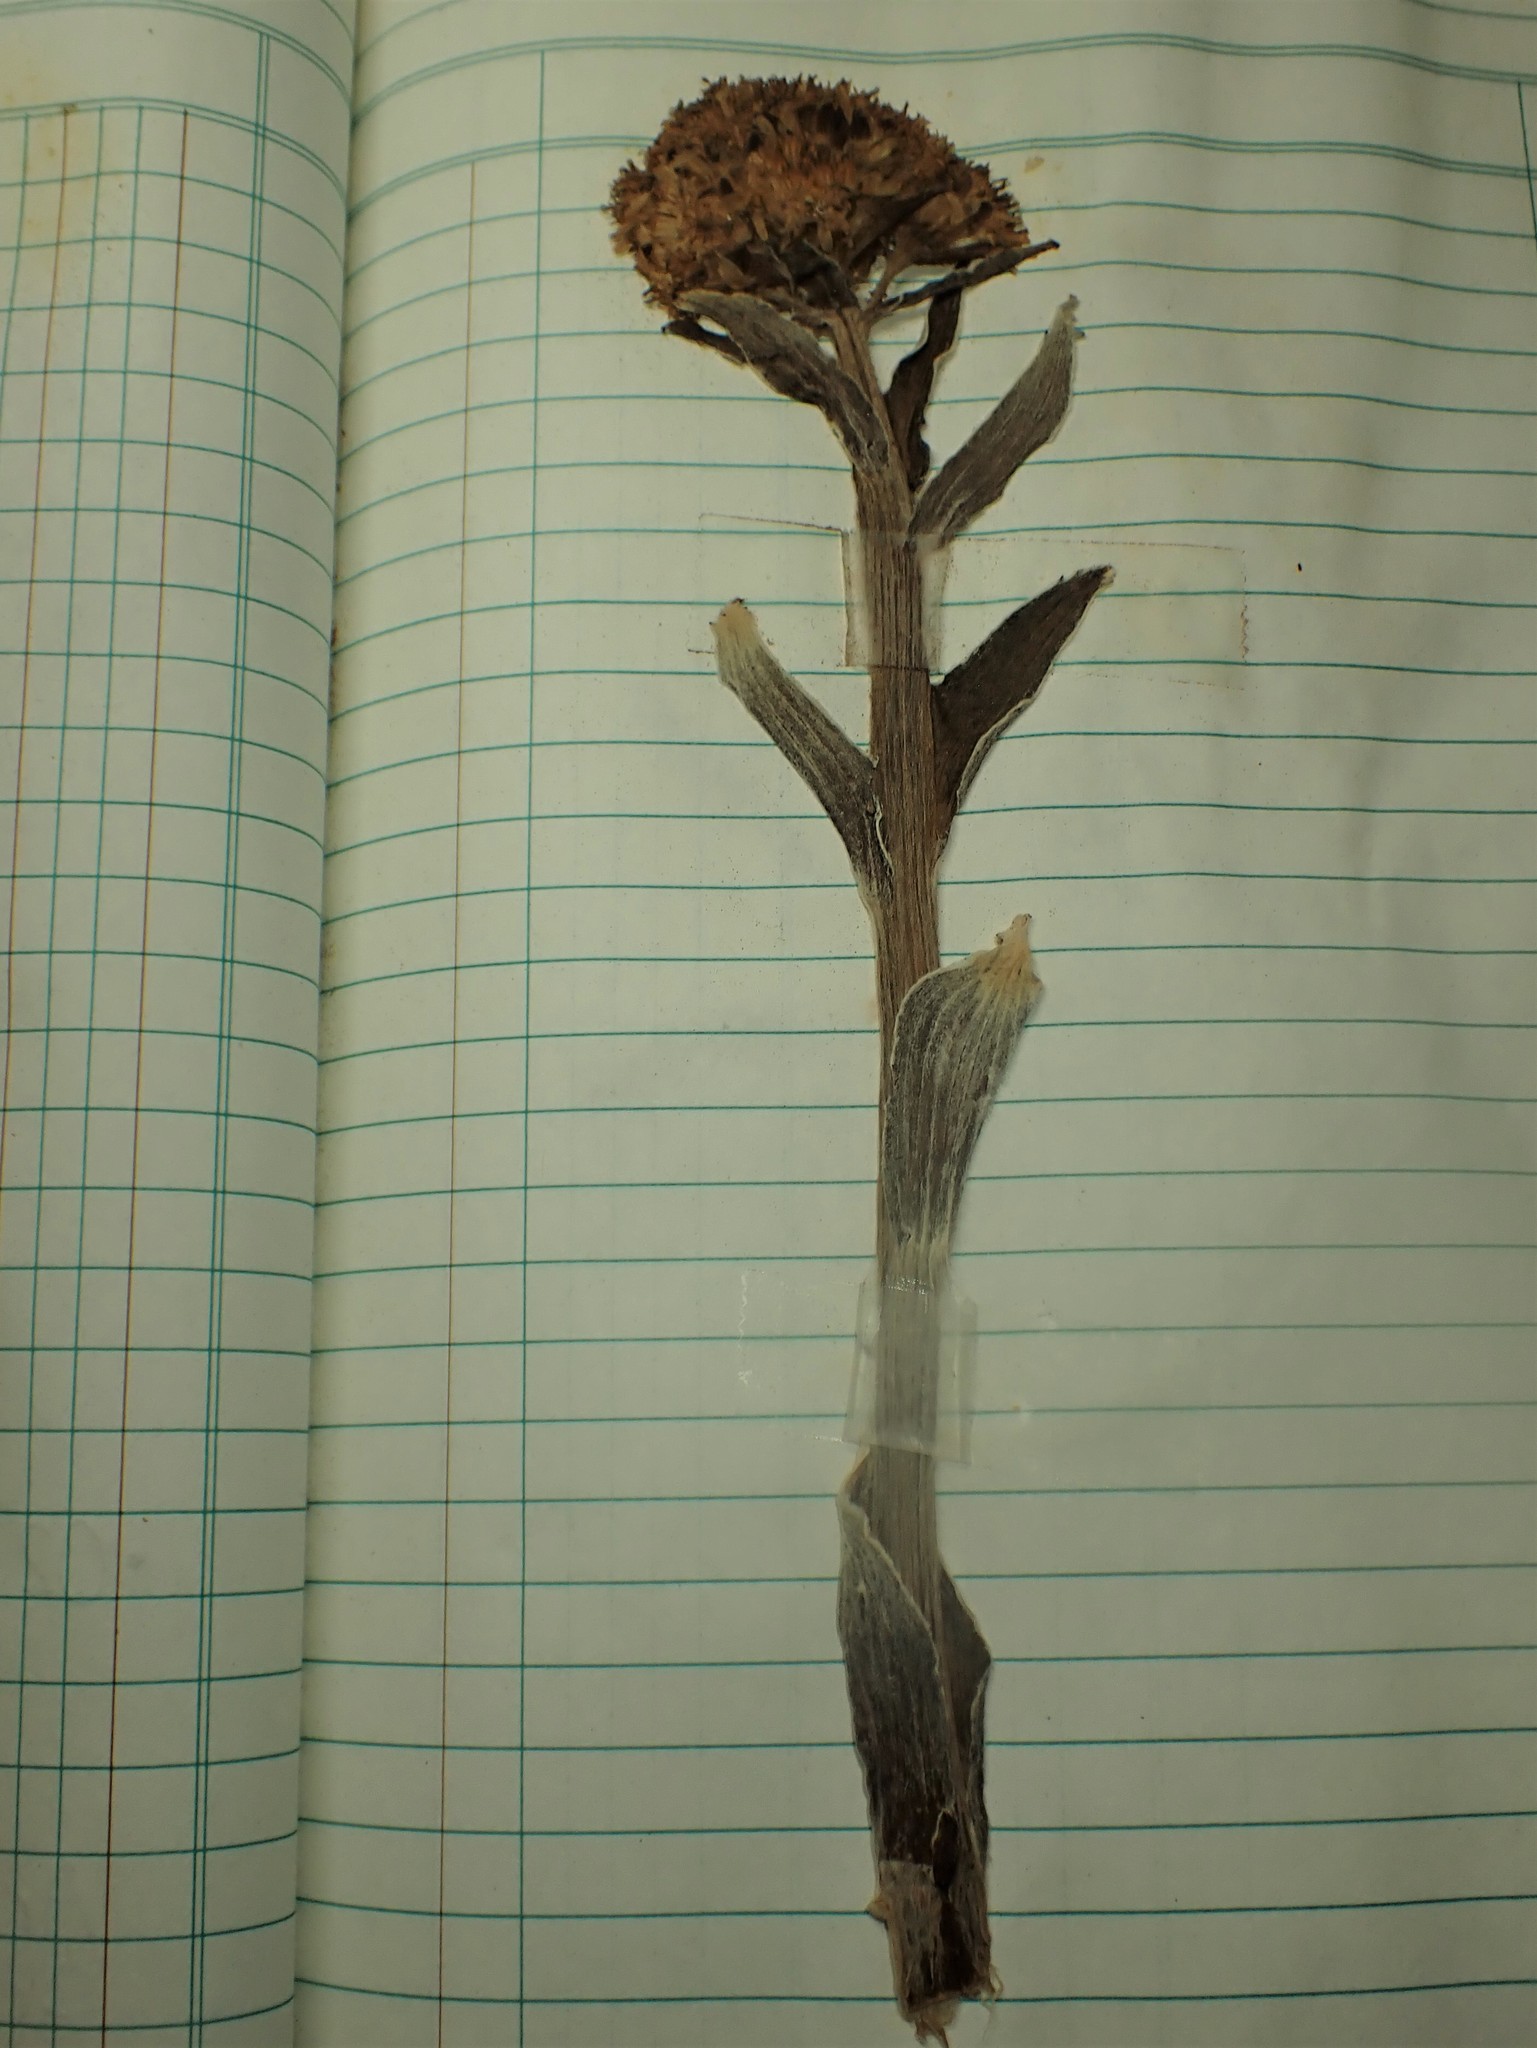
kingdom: Plantae
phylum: Tracheophyta
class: Magnoliopsida
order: Asterales
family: Asteraceae
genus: Petasites
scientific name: Petasites frigidus
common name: Arctic butterbur
